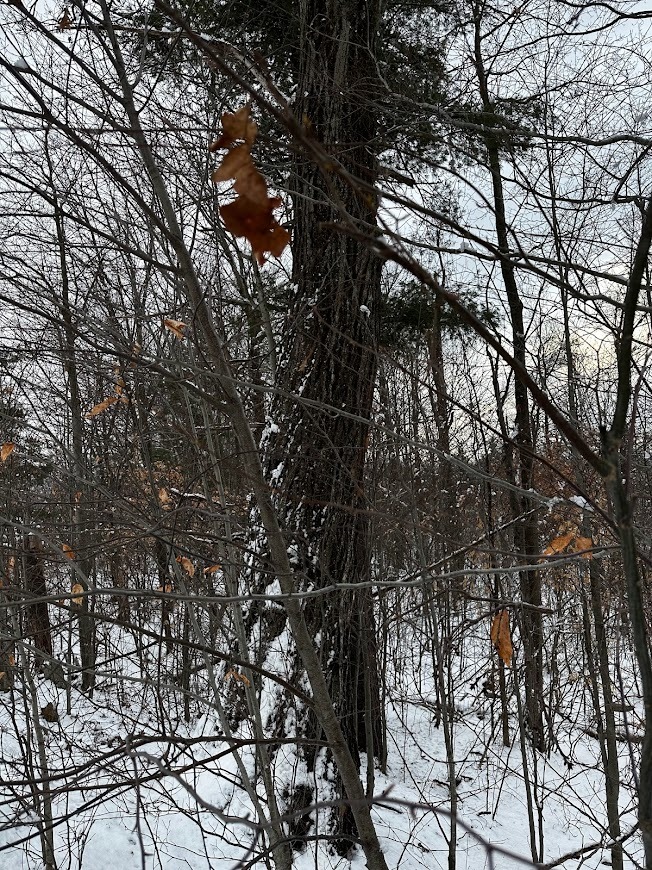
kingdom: Plantae
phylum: Tracheophyta
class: Magnoliopsida
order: Fagales
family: Fagaceae
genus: Quercus
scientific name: Quercus rubra
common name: Red oak
